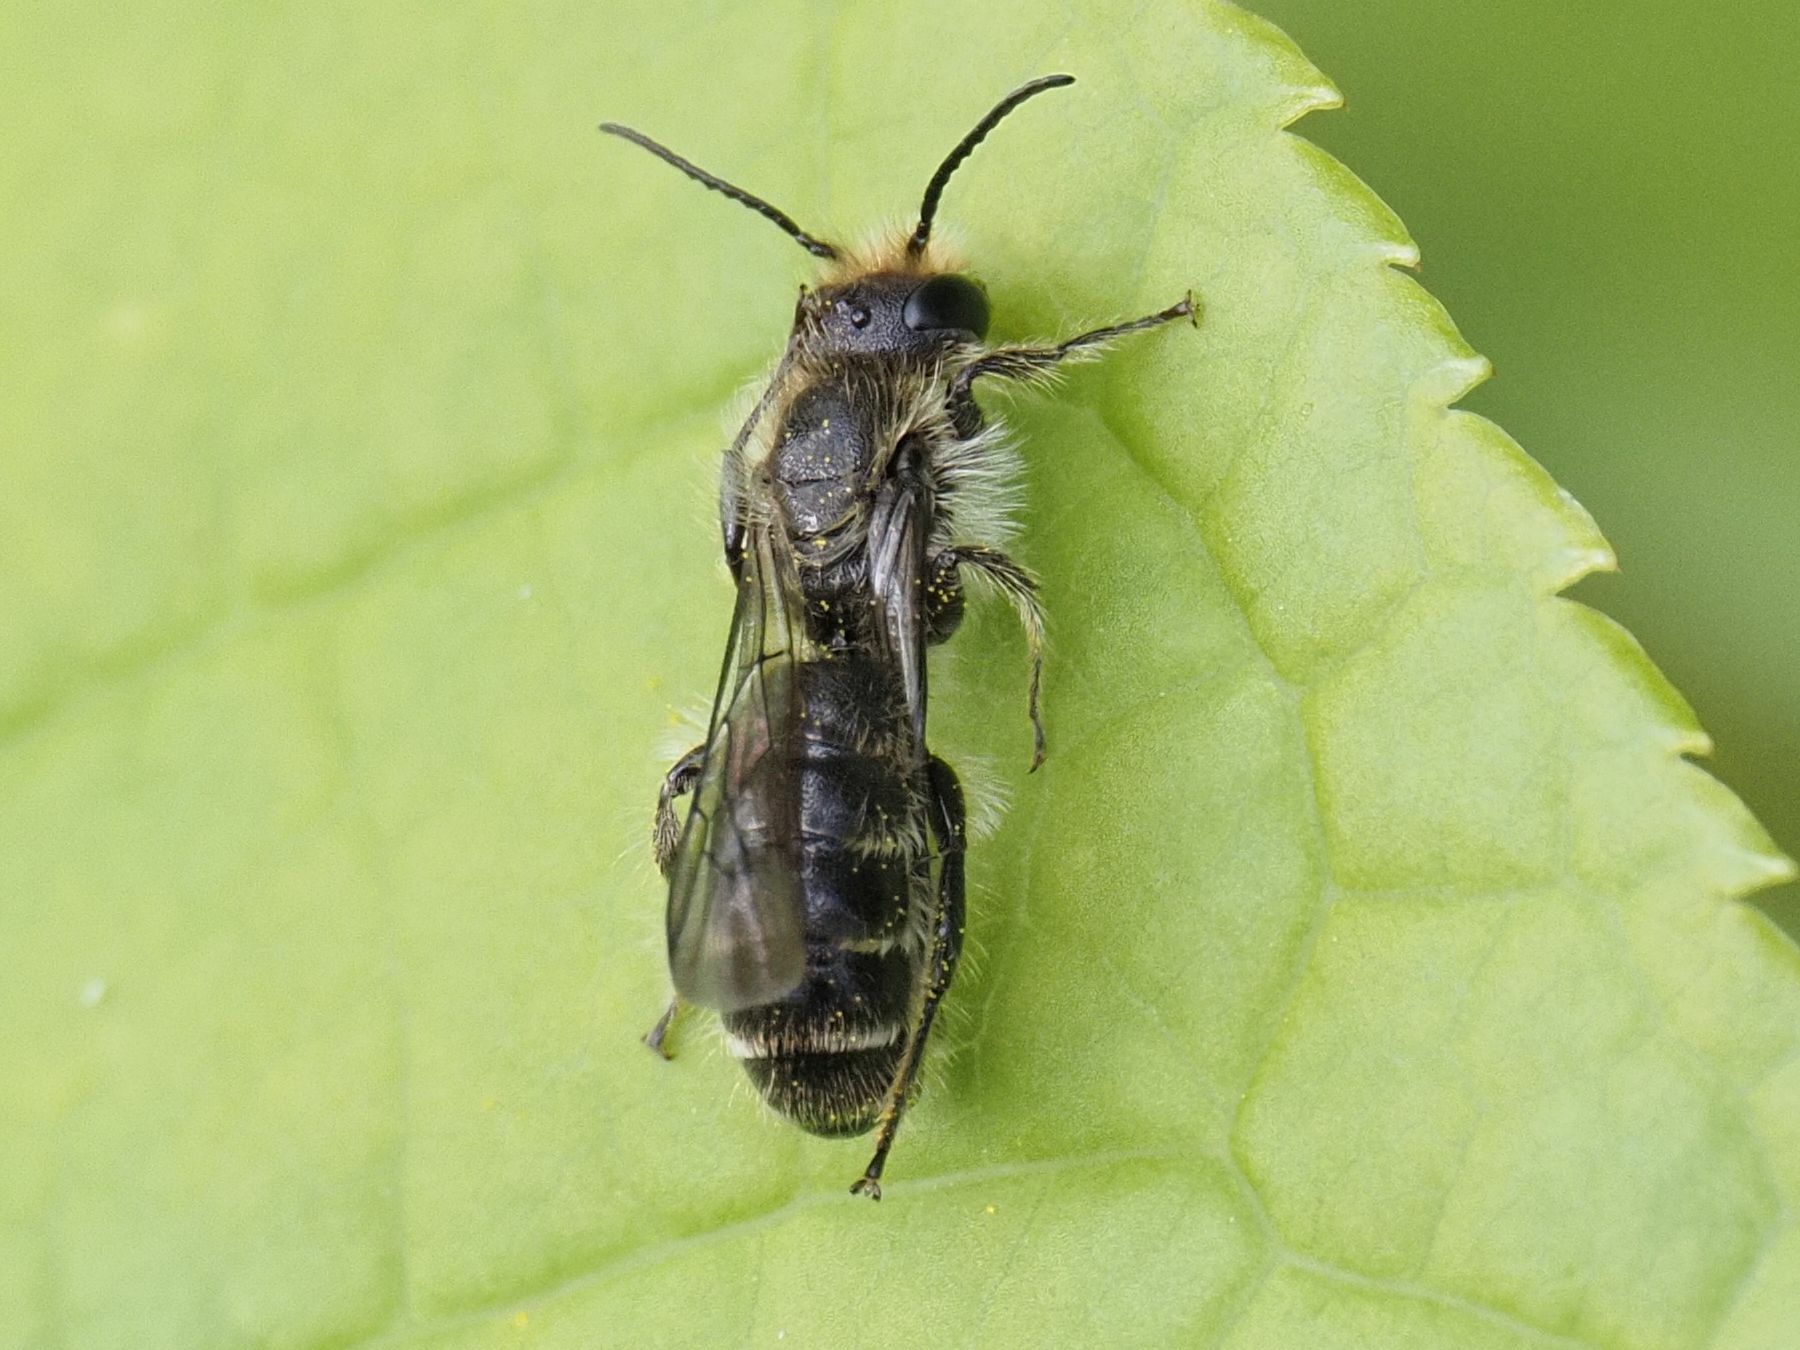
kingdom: Animalia
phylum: Arthropoda
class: Insecta
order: Hymenoptera
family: Megachilidae
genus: Chelostoma
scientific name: Chelostoma florisomne
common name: Sleepy carpenter bee
